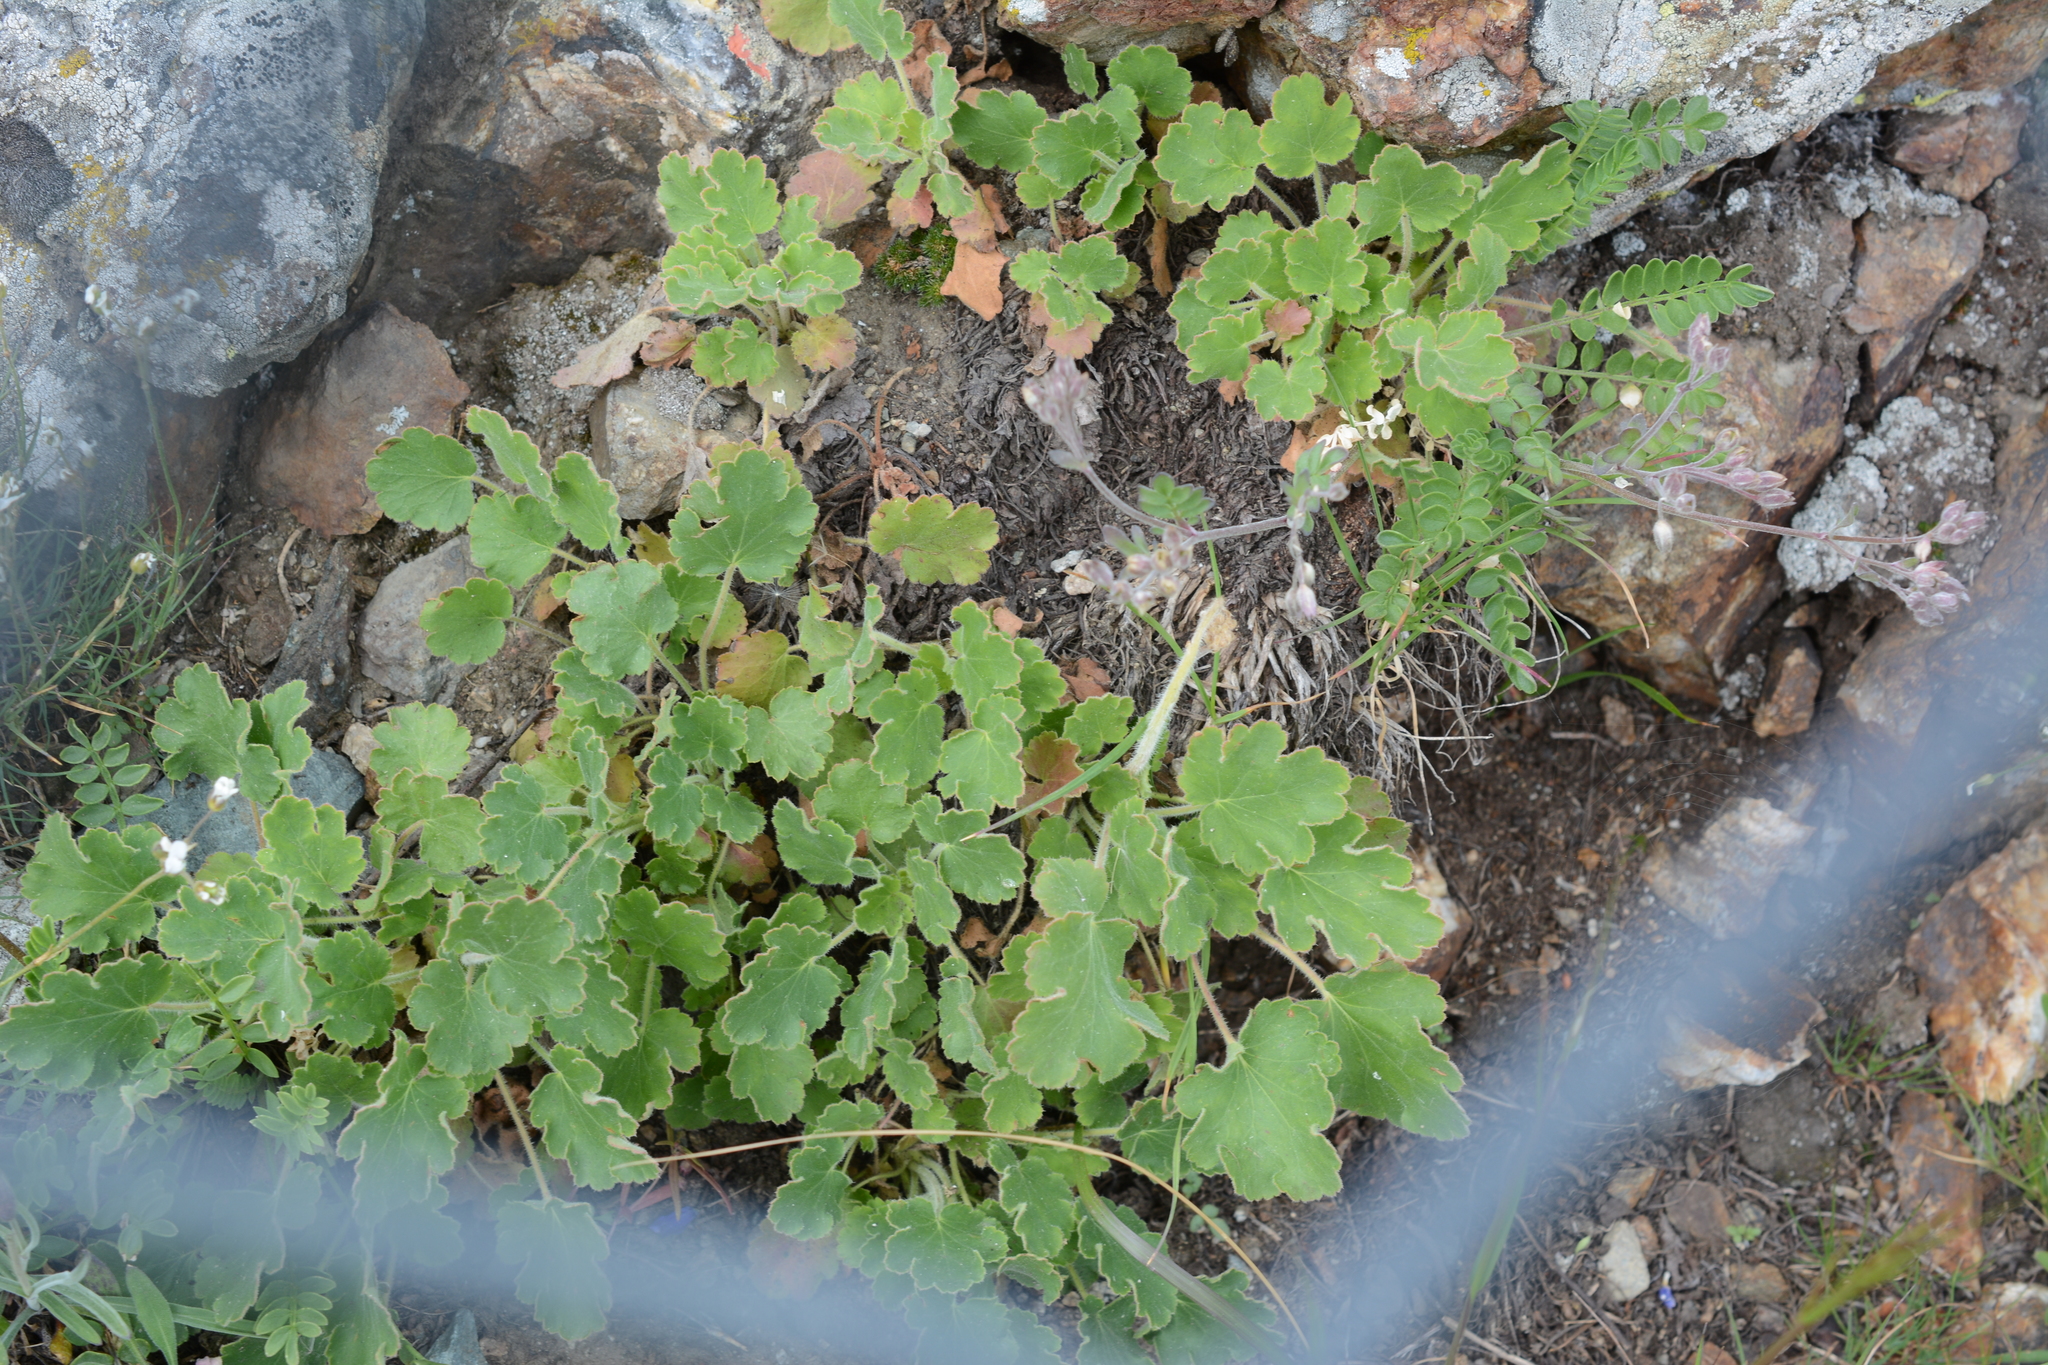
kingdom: Plantae
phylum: Tracheophyta
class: Magnoliopsida
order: Saxifragales
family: Saxifragaceae
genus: Heuchera
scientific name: Heuchera cylindrica
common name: Mat alumroot
